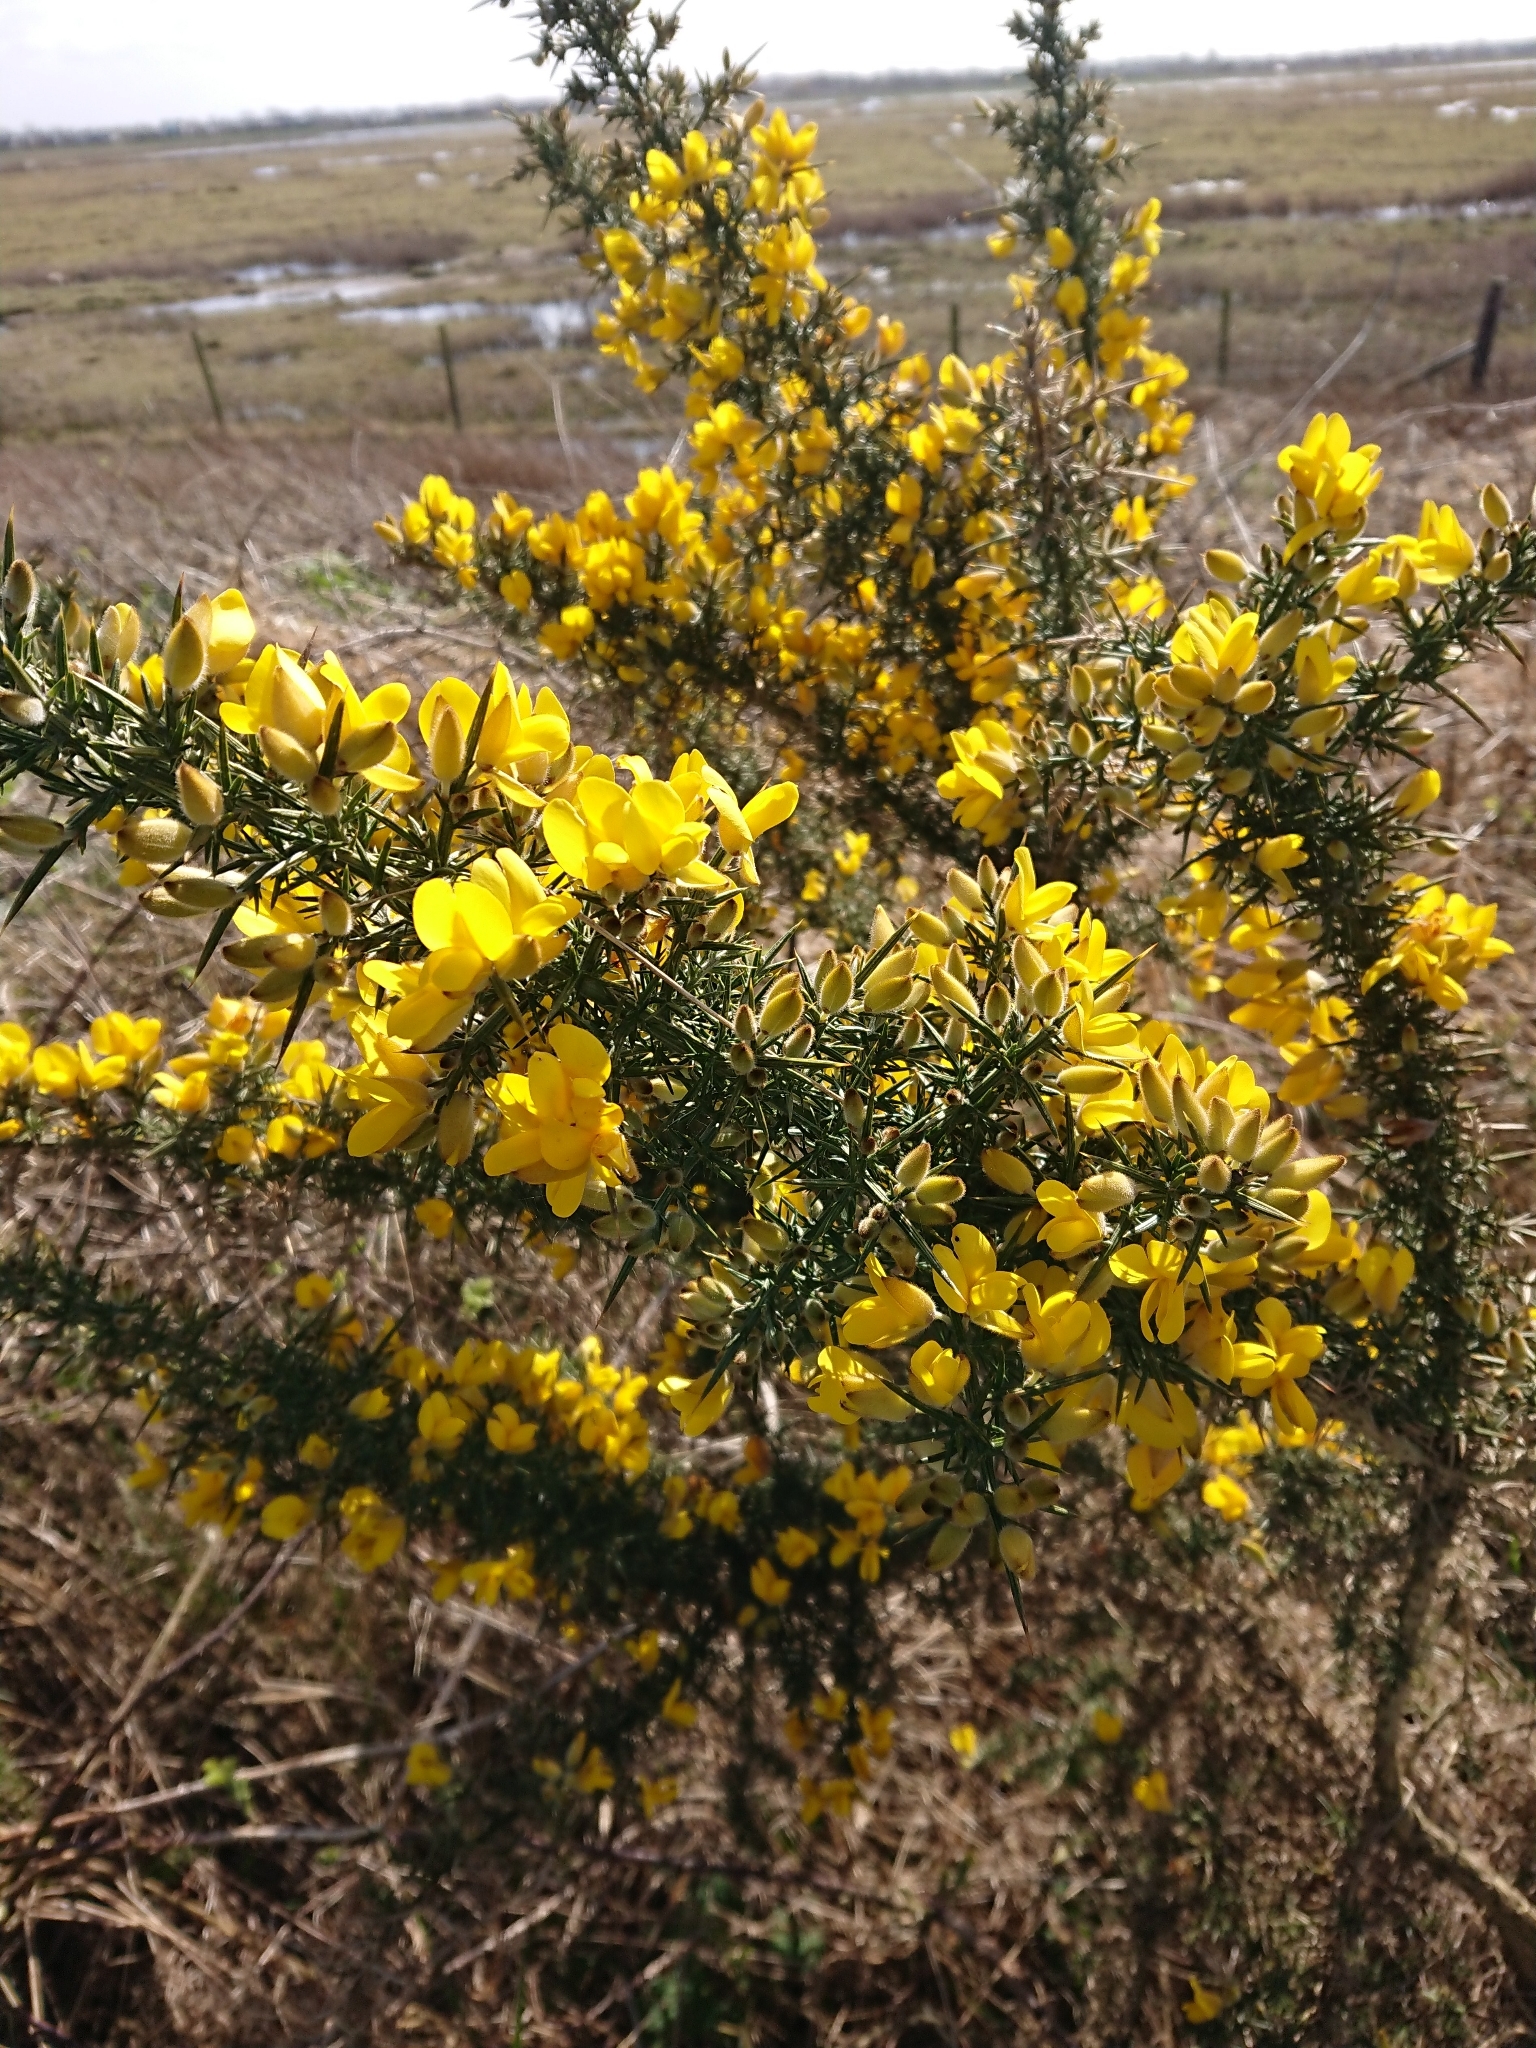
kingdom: Plantae
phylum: Tracheophyta
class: Magnoliopsida
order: Fabales
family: Fabaceae
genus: Ulex
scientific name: Ulex europaeus
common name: Common gorse
